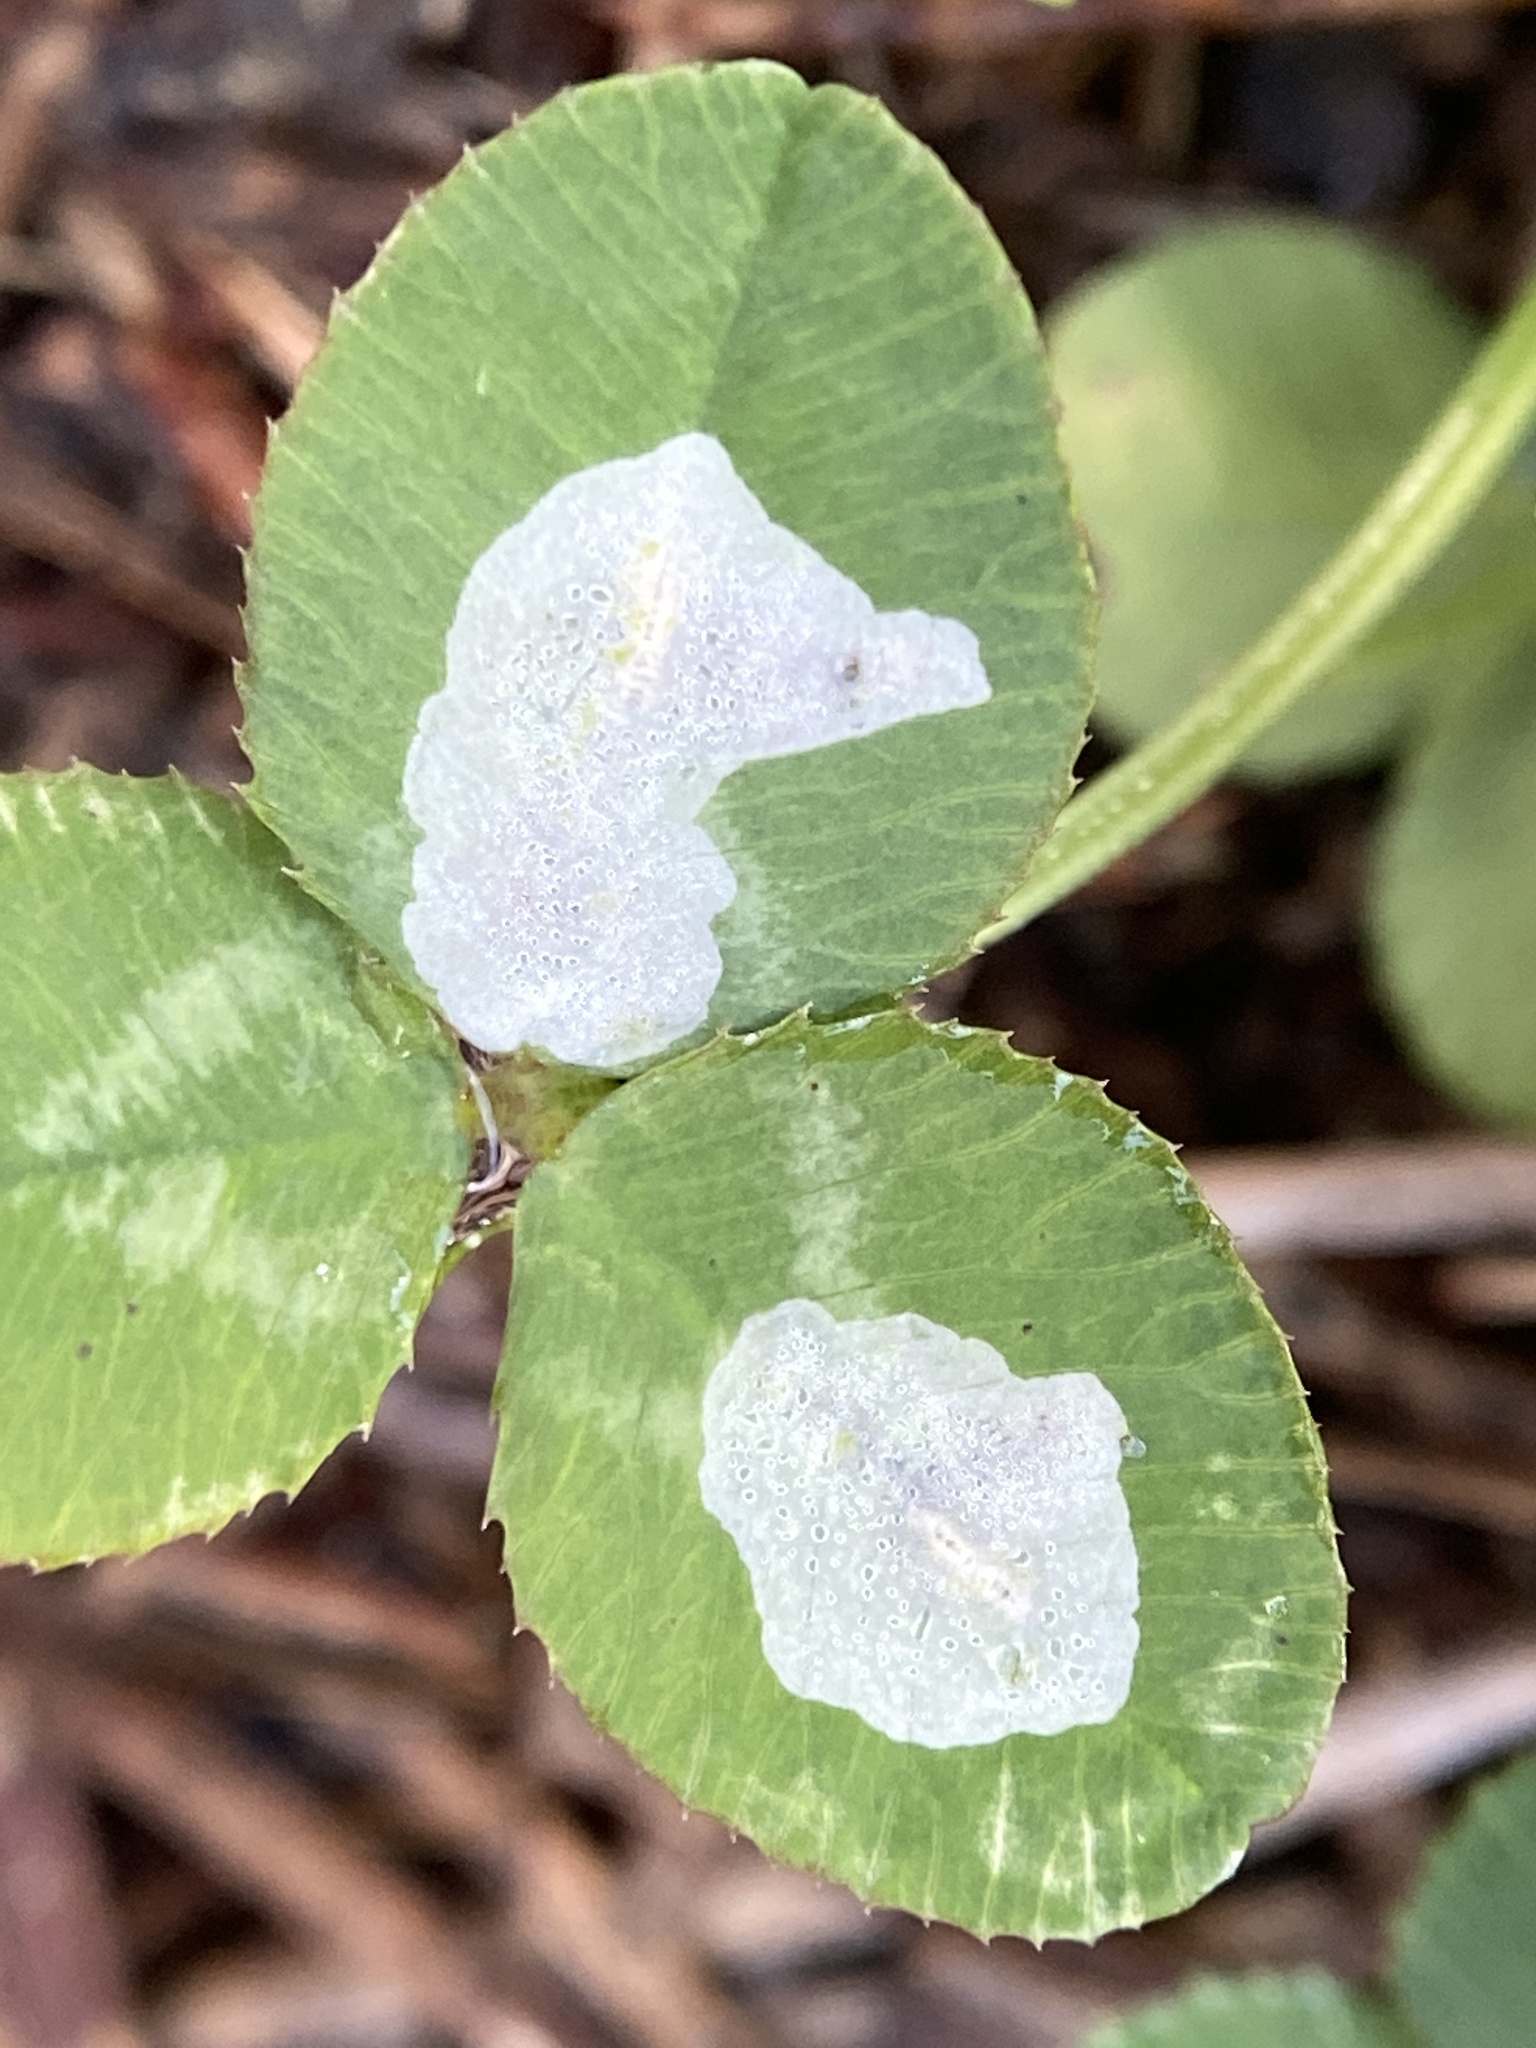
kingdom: Animalia
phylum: Arthropoda
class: Insecta
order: Lepidoptera
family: Gracillariidae
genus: Porphyrosela
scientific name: Porphyrosela minuta
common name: Leaf miner moth
